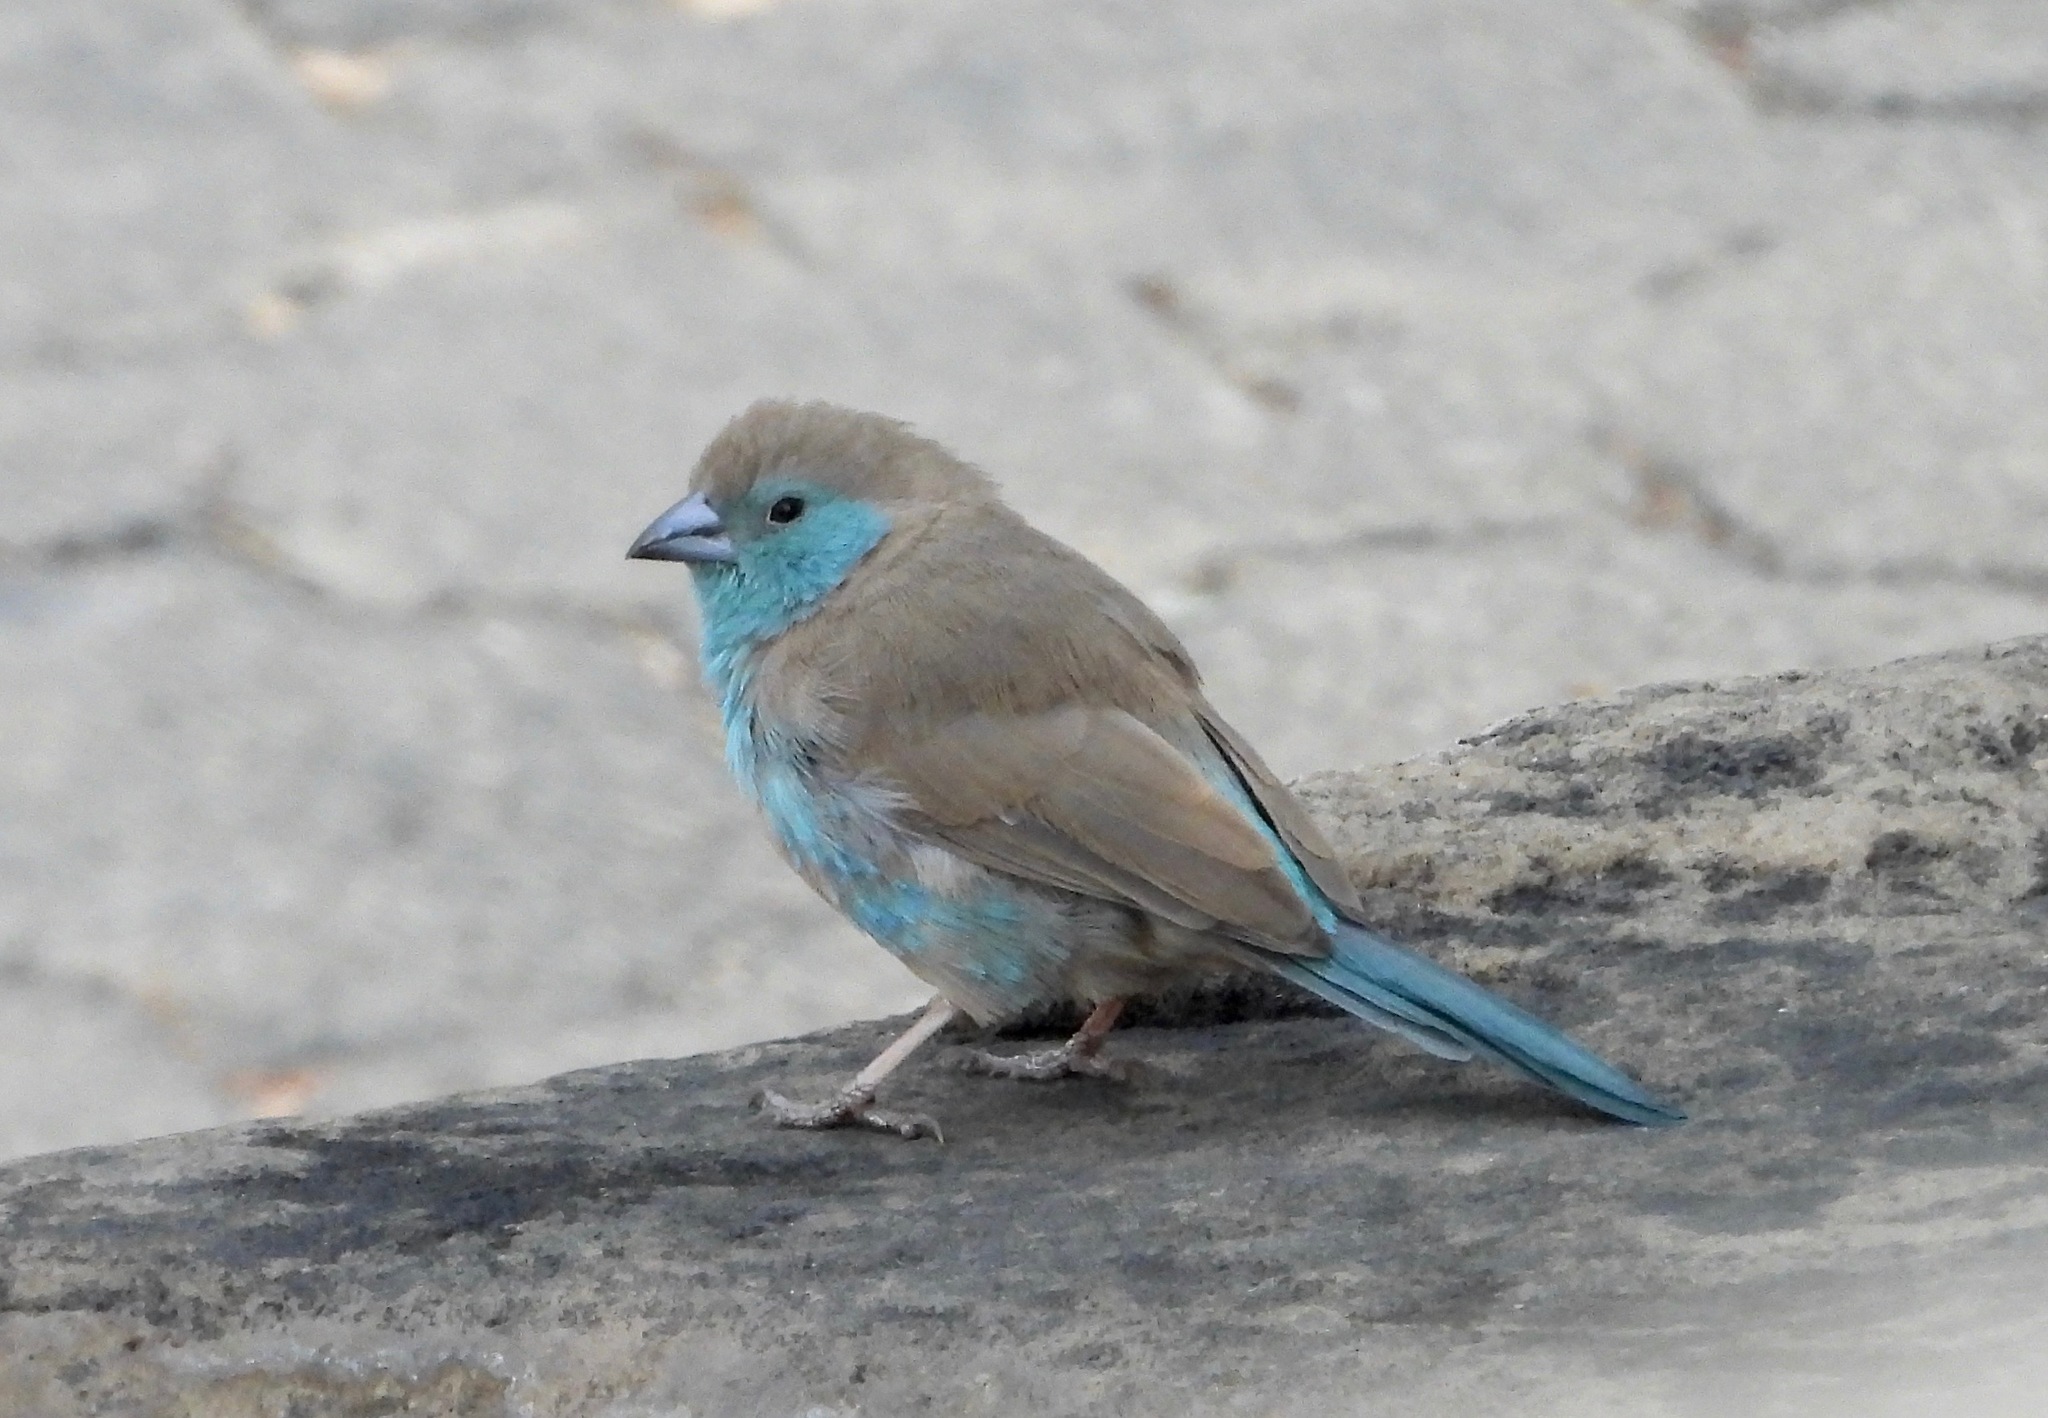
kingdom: Animalia
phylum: Chordata
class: Aves
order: Passeriformes
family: Estrildidae
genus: Uraeginthus
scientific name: Uraeginthus angolensis
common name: Blue waxbill
